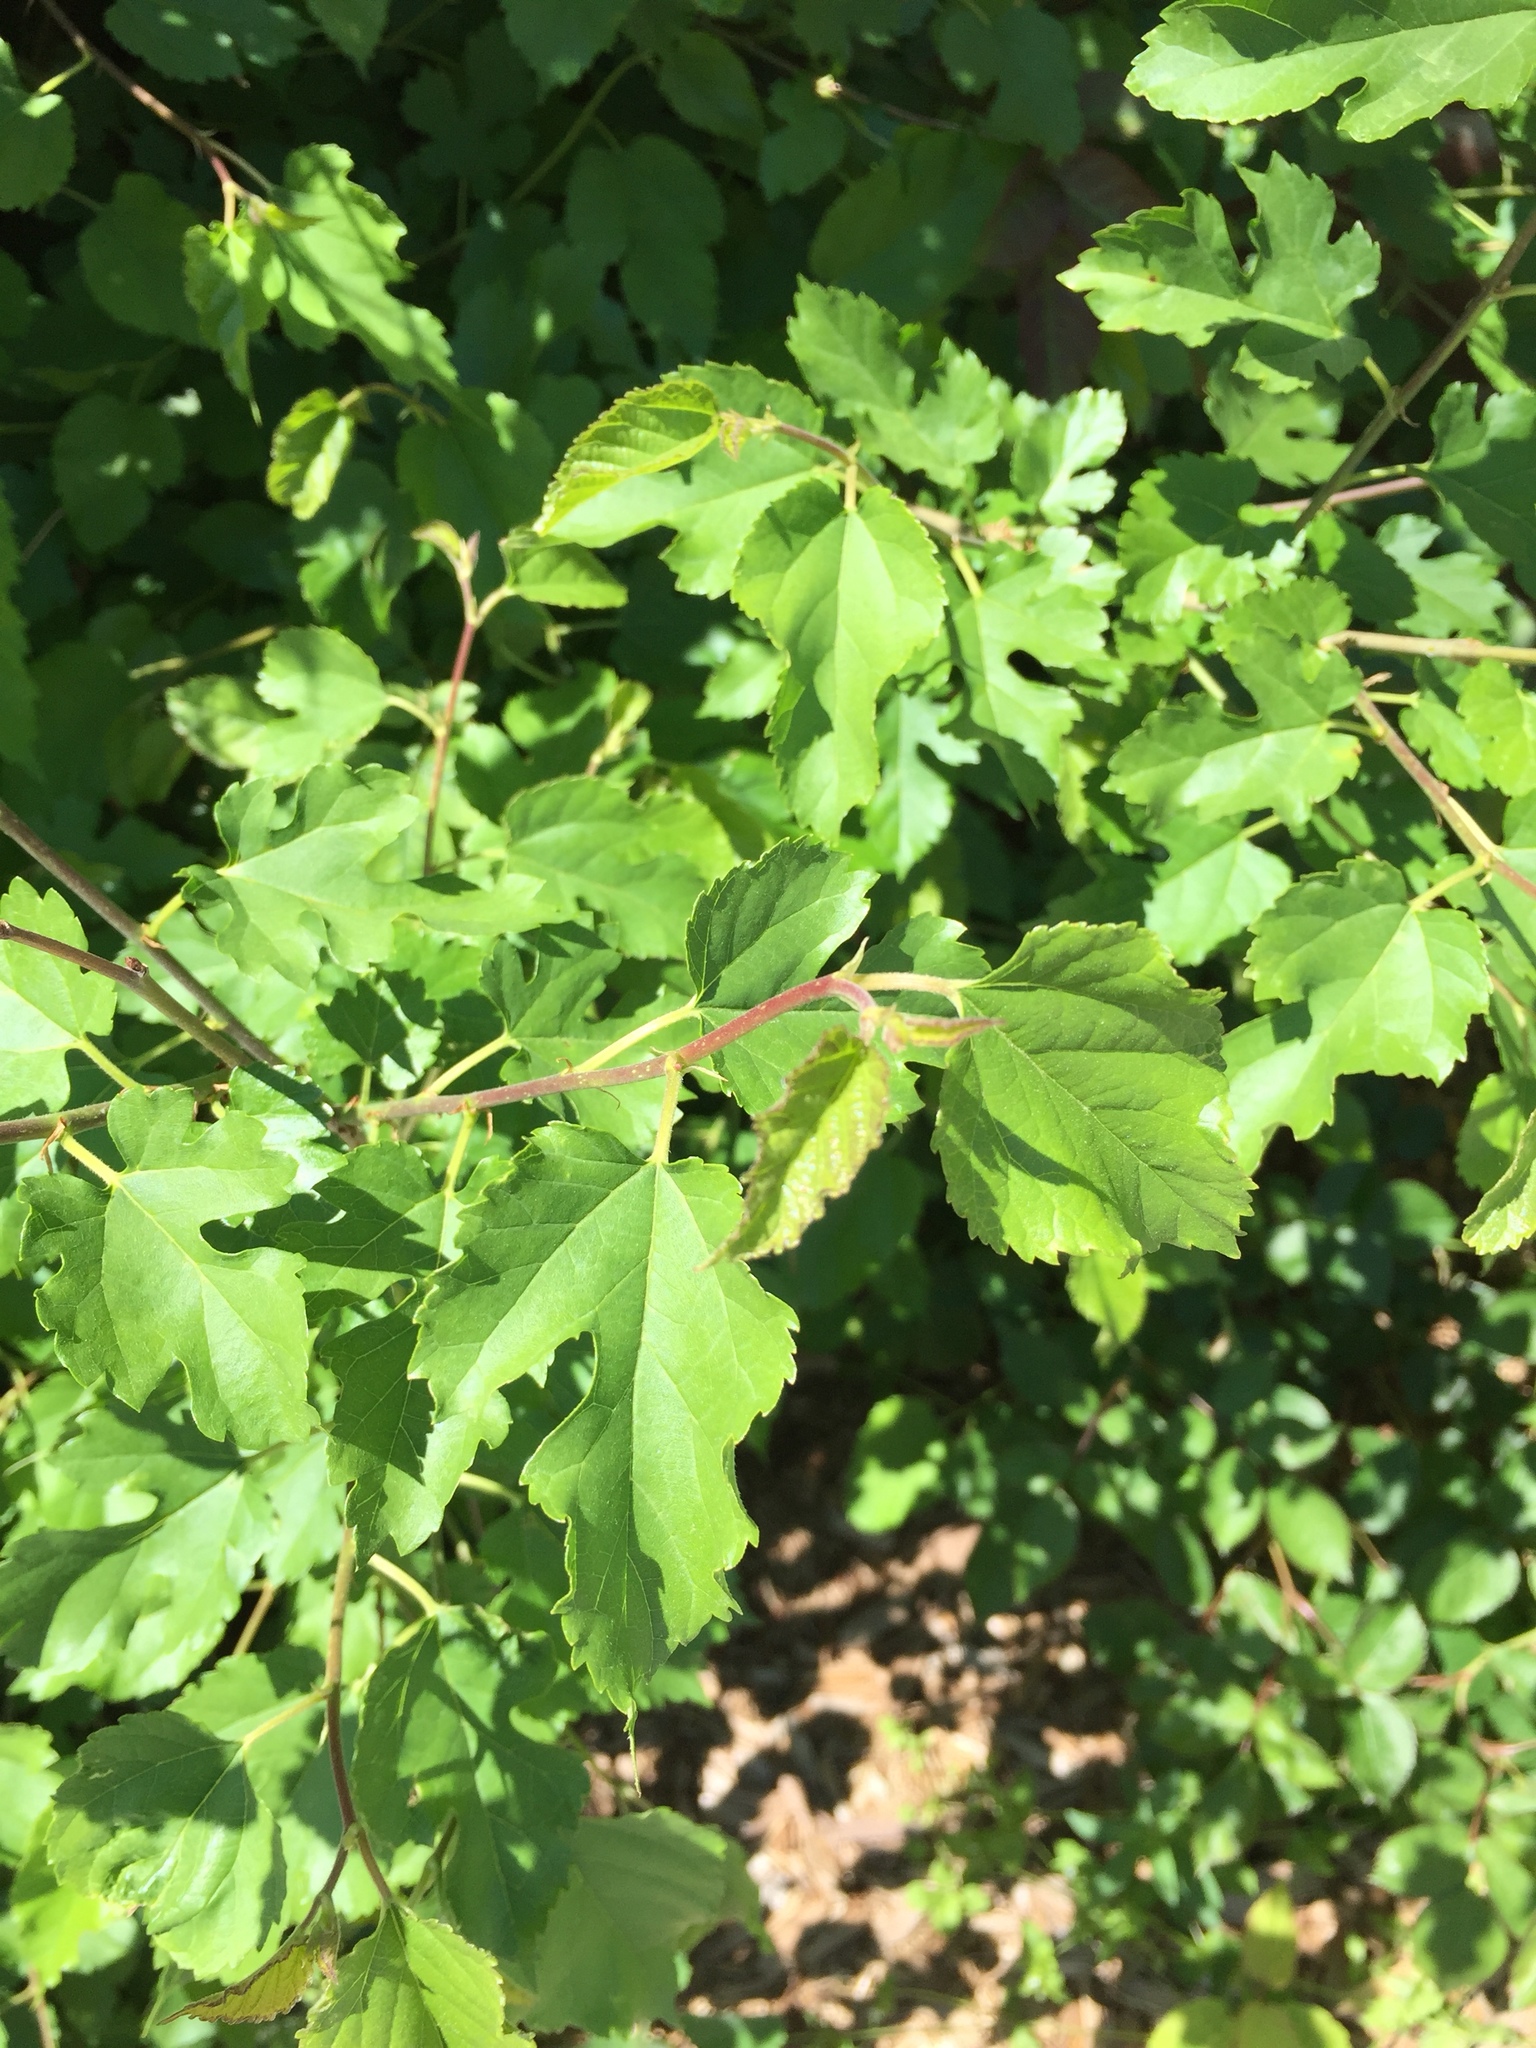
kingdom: Plantae
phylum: Tracheophyta
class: Magnoliopsida
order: Rosales
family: Moraceae
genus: Morus
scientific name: Morus alba
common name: White mulberry
